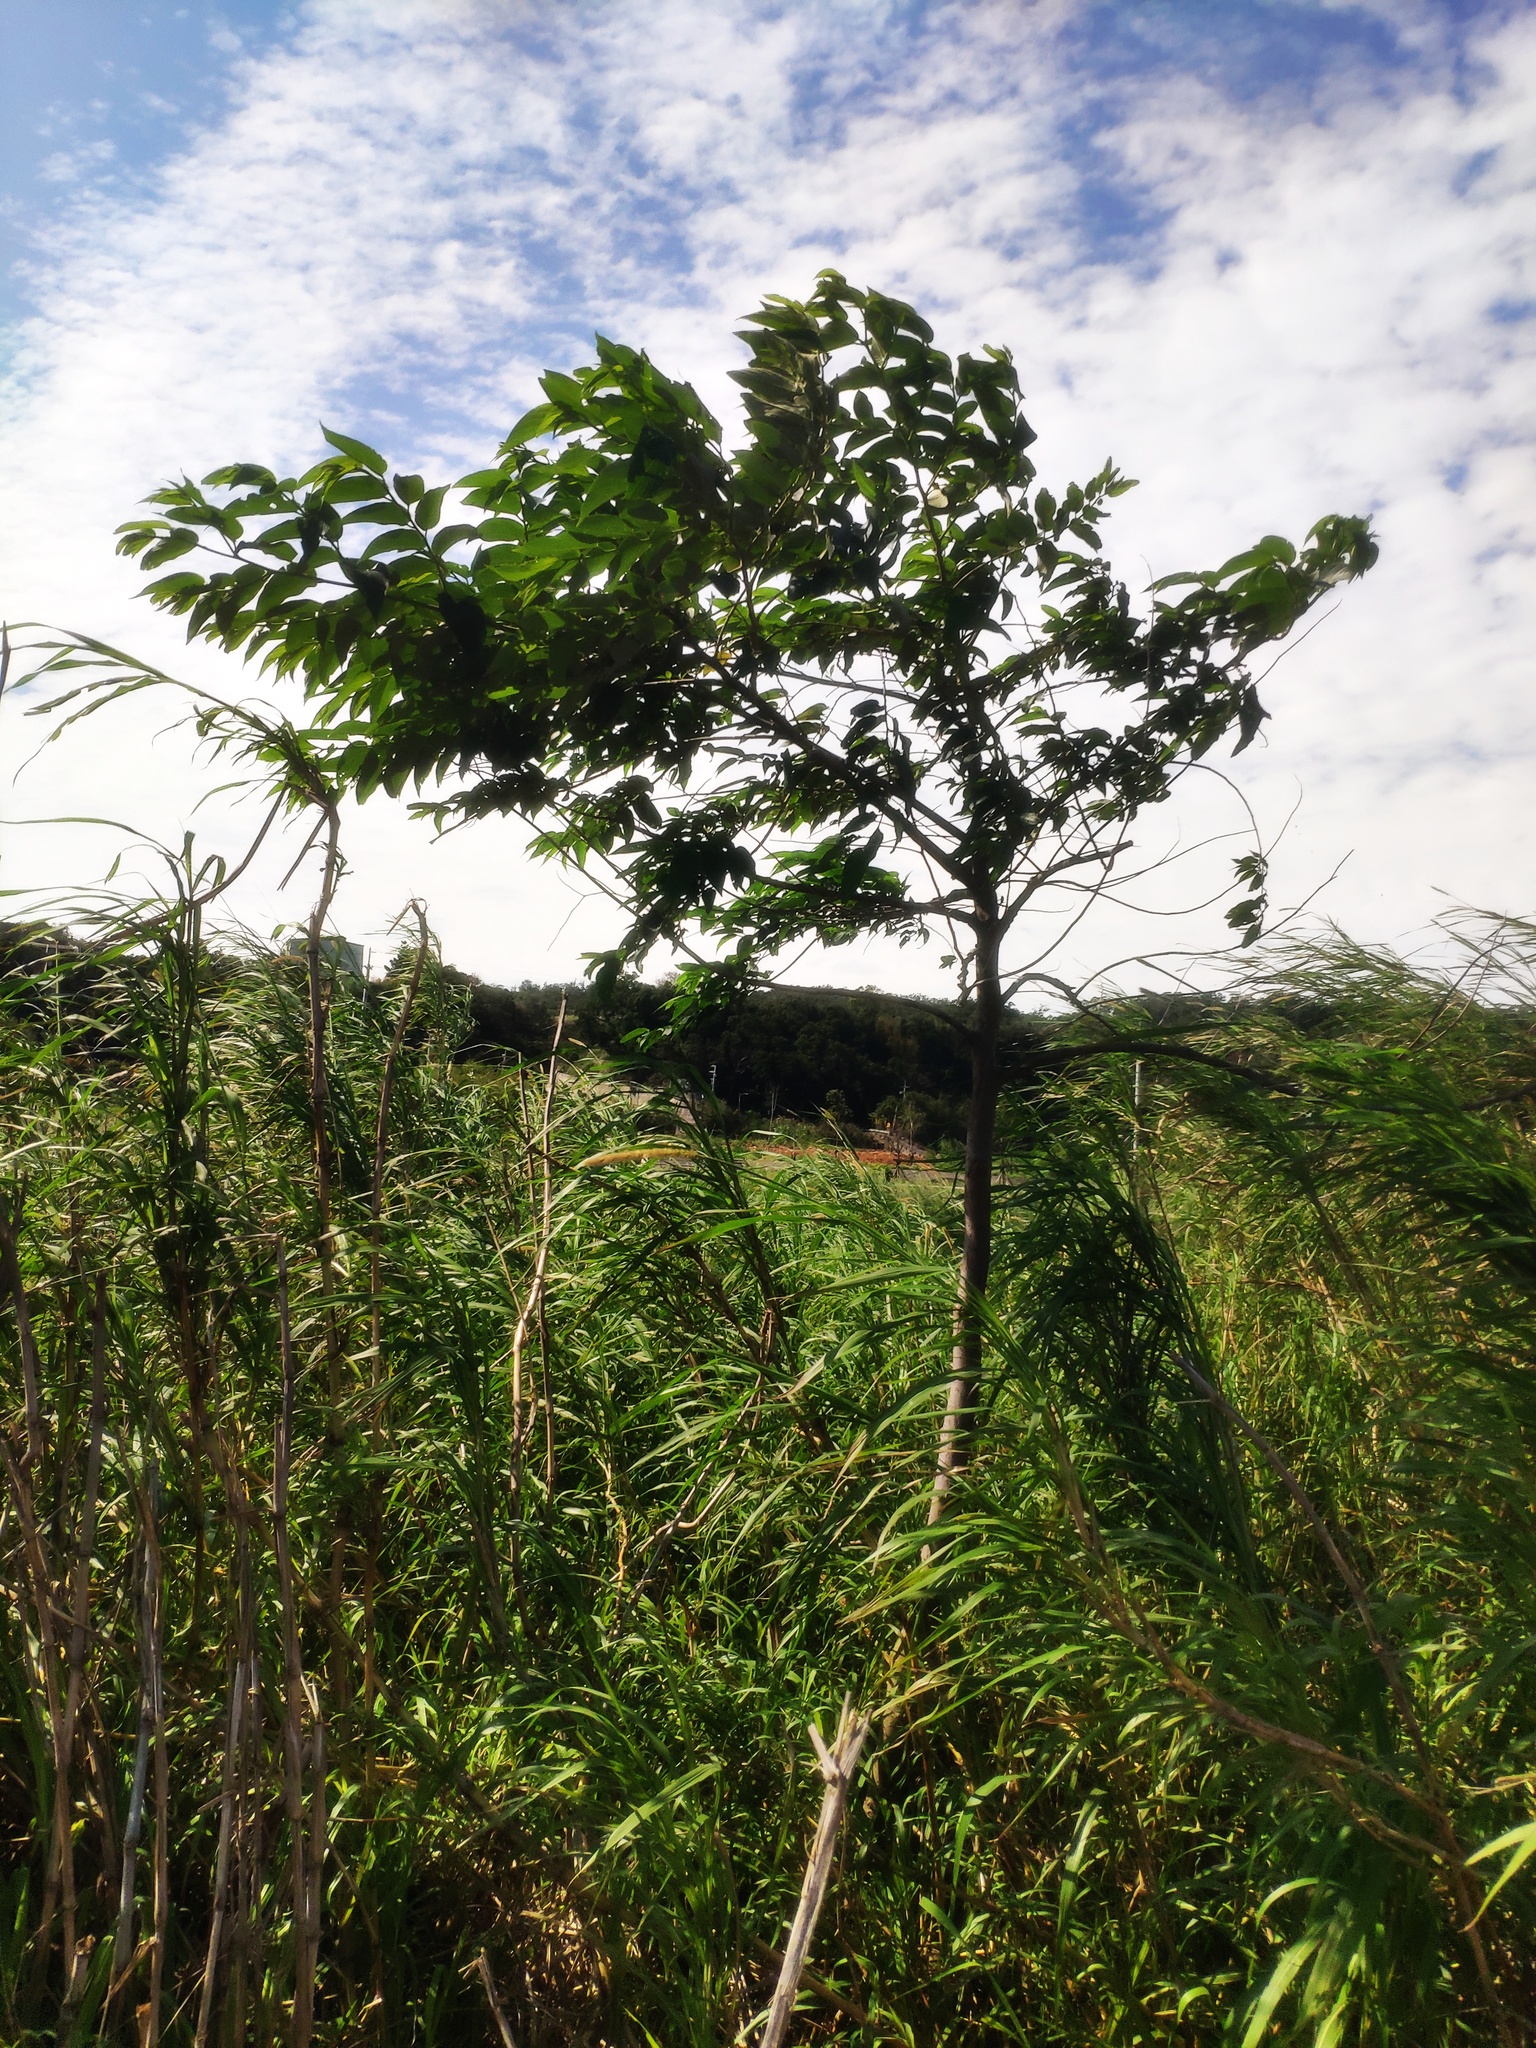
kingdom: Plantae
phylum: Tracheophyta
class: Magnoliopsida
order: Rosales
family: Cannabaceae
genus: Trema
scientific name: Trema orientale
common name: Indian charcoal tree
